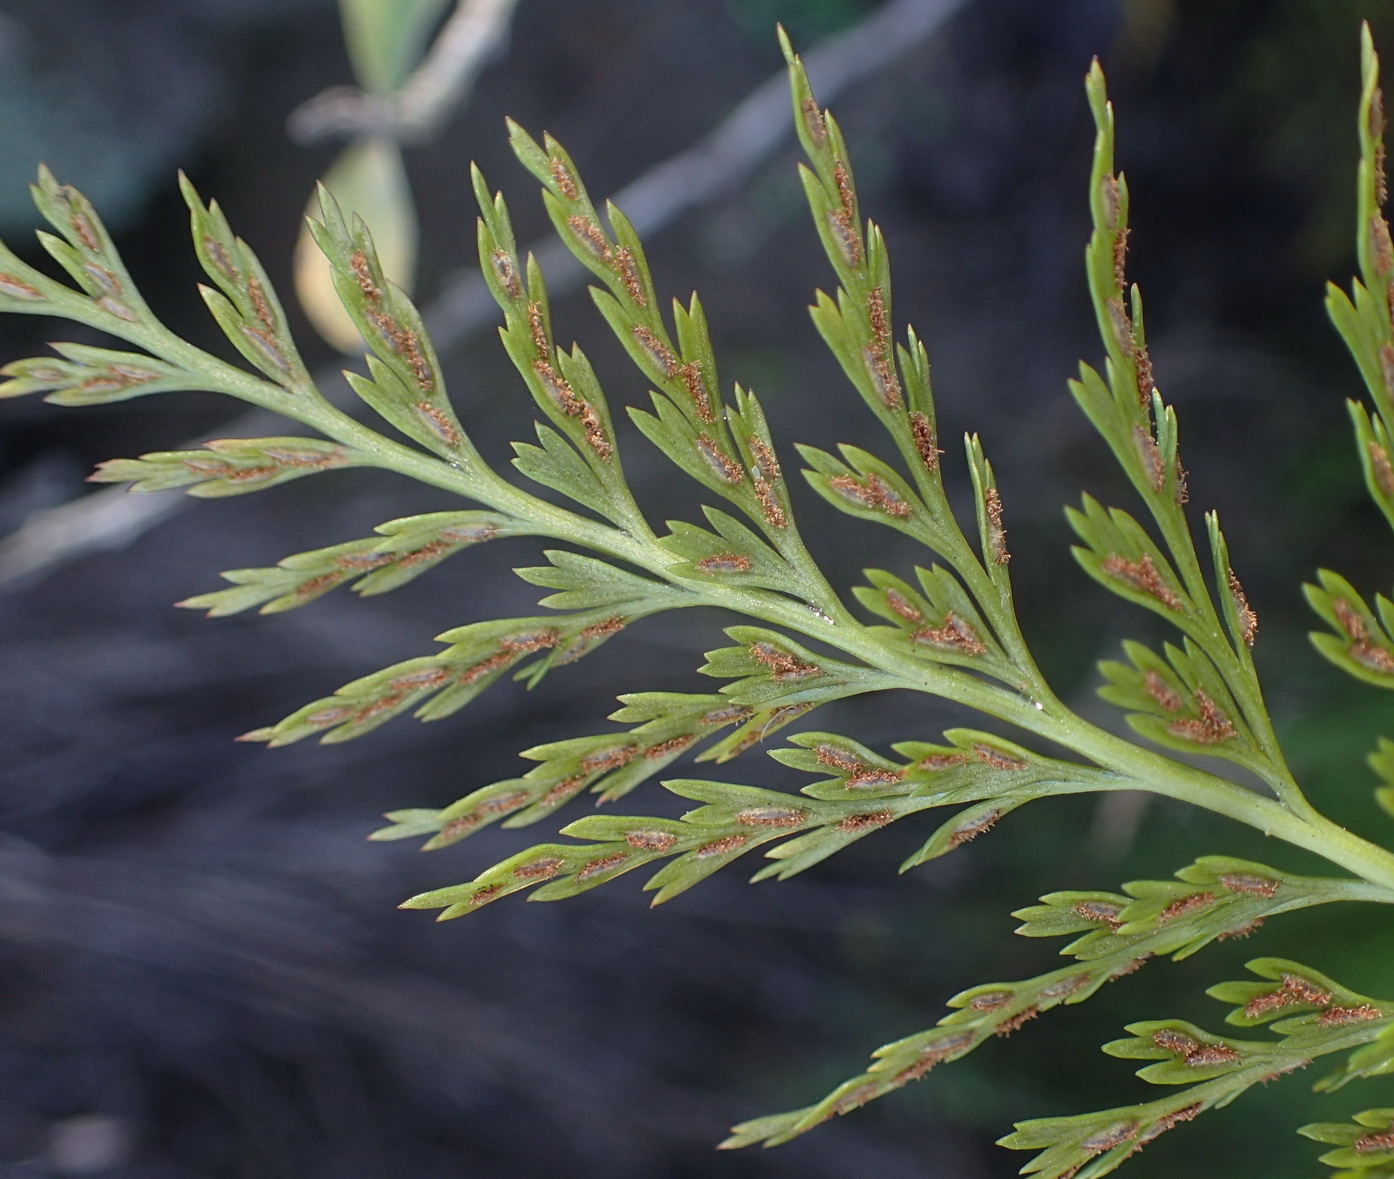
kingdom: Plantae
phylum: Tracheophyta
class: Polypodiopsida
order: Polypodiales
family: Aspleniaceae
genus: Asplenium
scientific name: Asplenium adiantum-nigrum
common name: Black spleenwort
